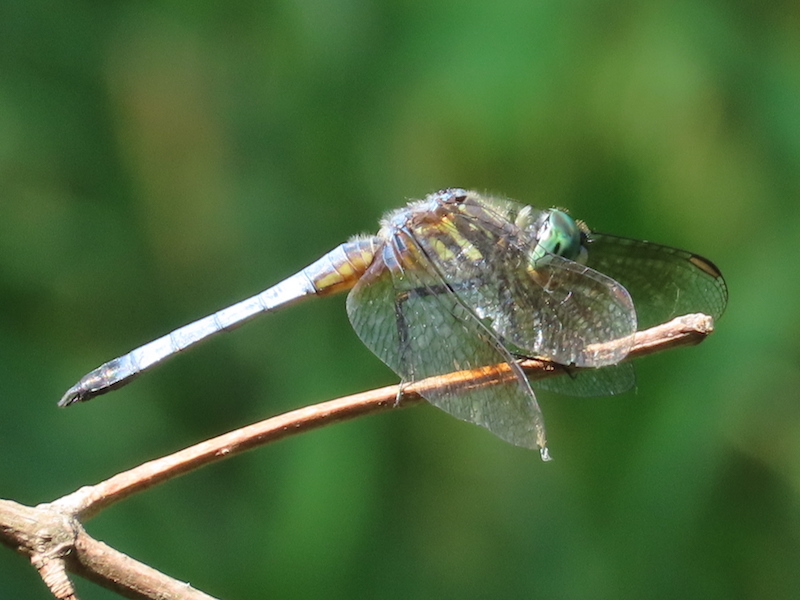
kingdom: Animalia
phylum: Arthropoda
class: Insecta
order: Odonata
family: Libellulidae
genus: Pachydiplax
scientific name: Pachydiplax longipennis
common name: Blue dasher
